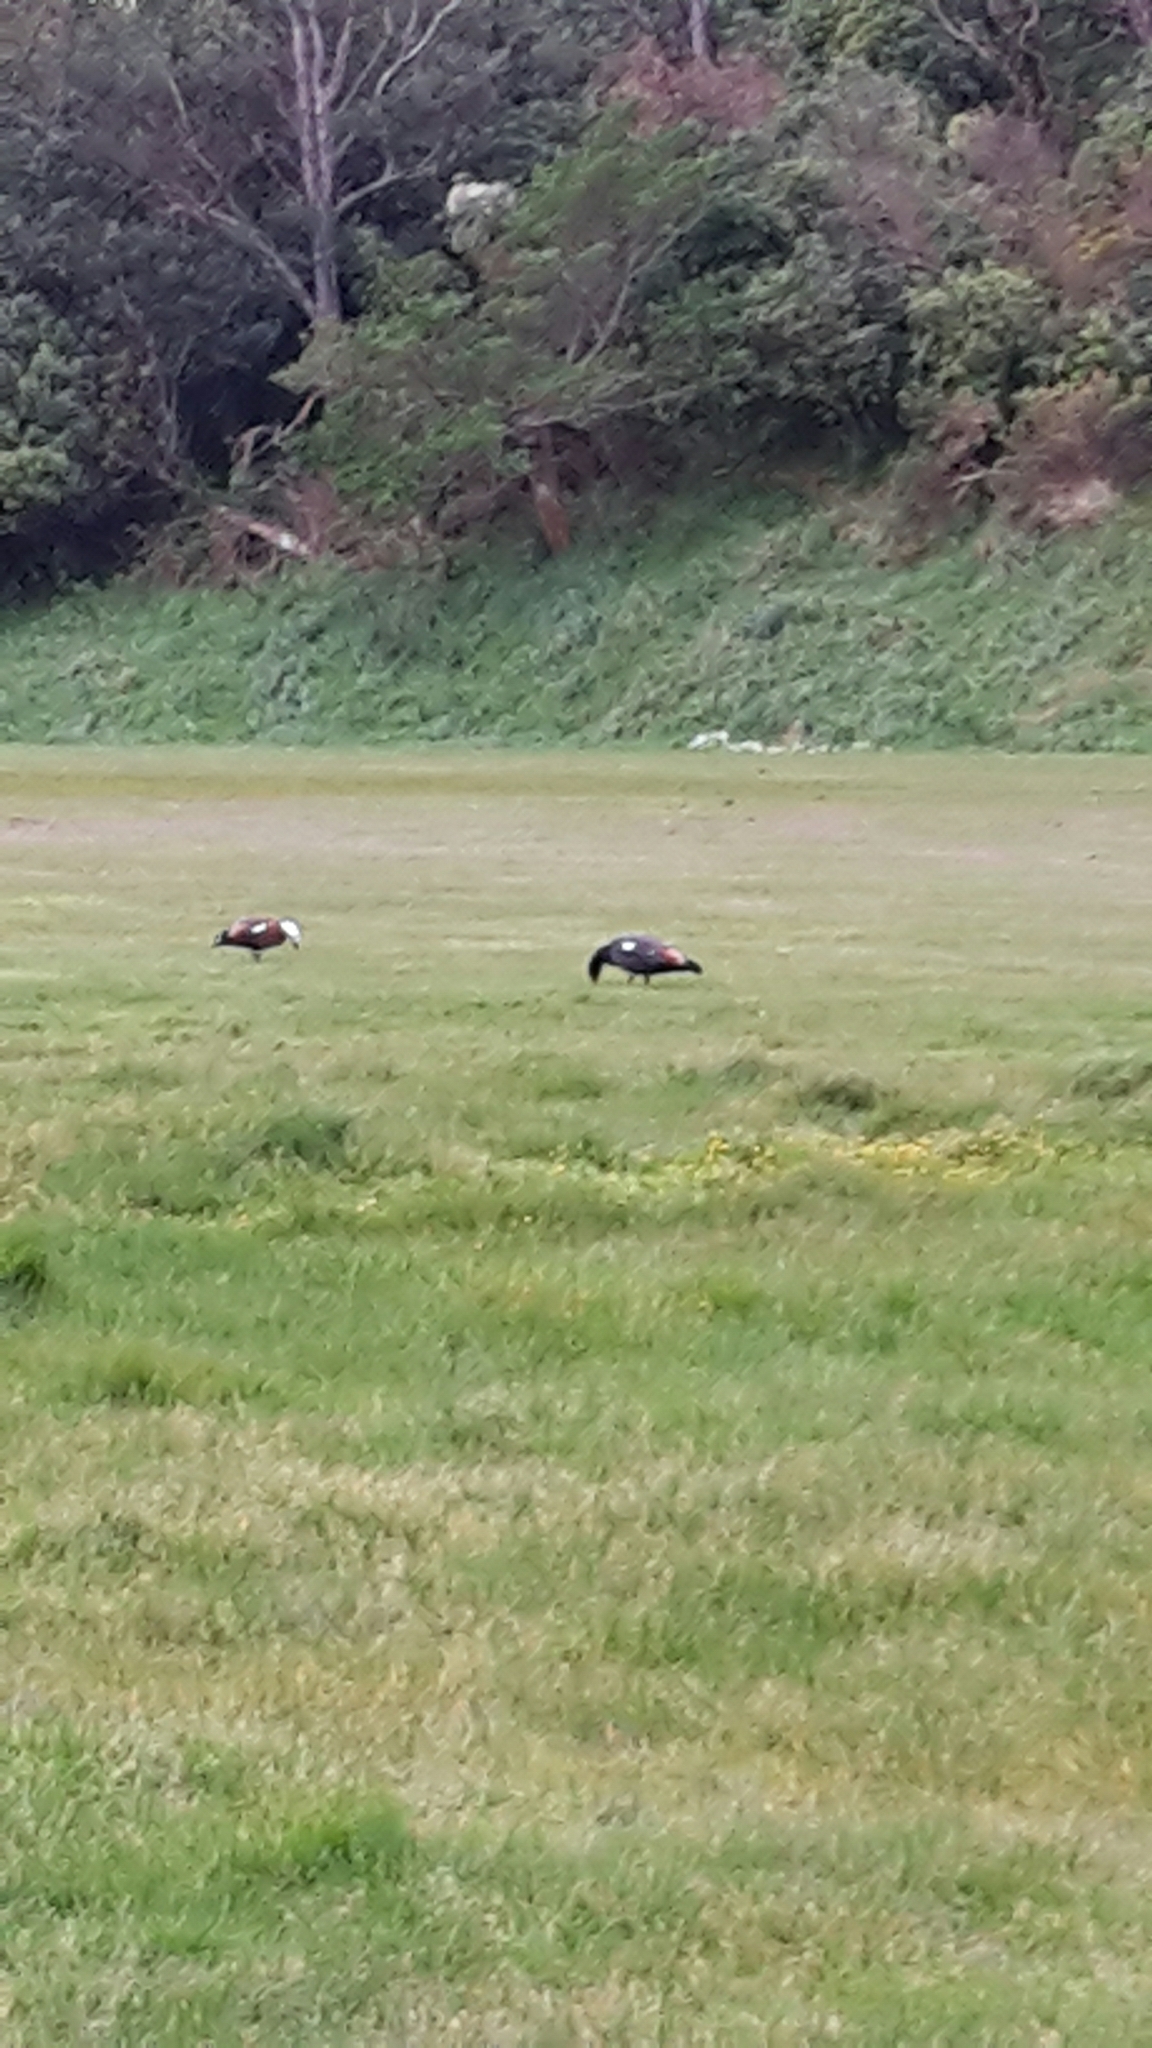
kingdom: Animalia
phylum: Chordata
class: Aves
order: Anseriformes
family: Anatidae
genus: Tadorna
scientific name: Tadorna variegata
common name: Paradise shelduck
